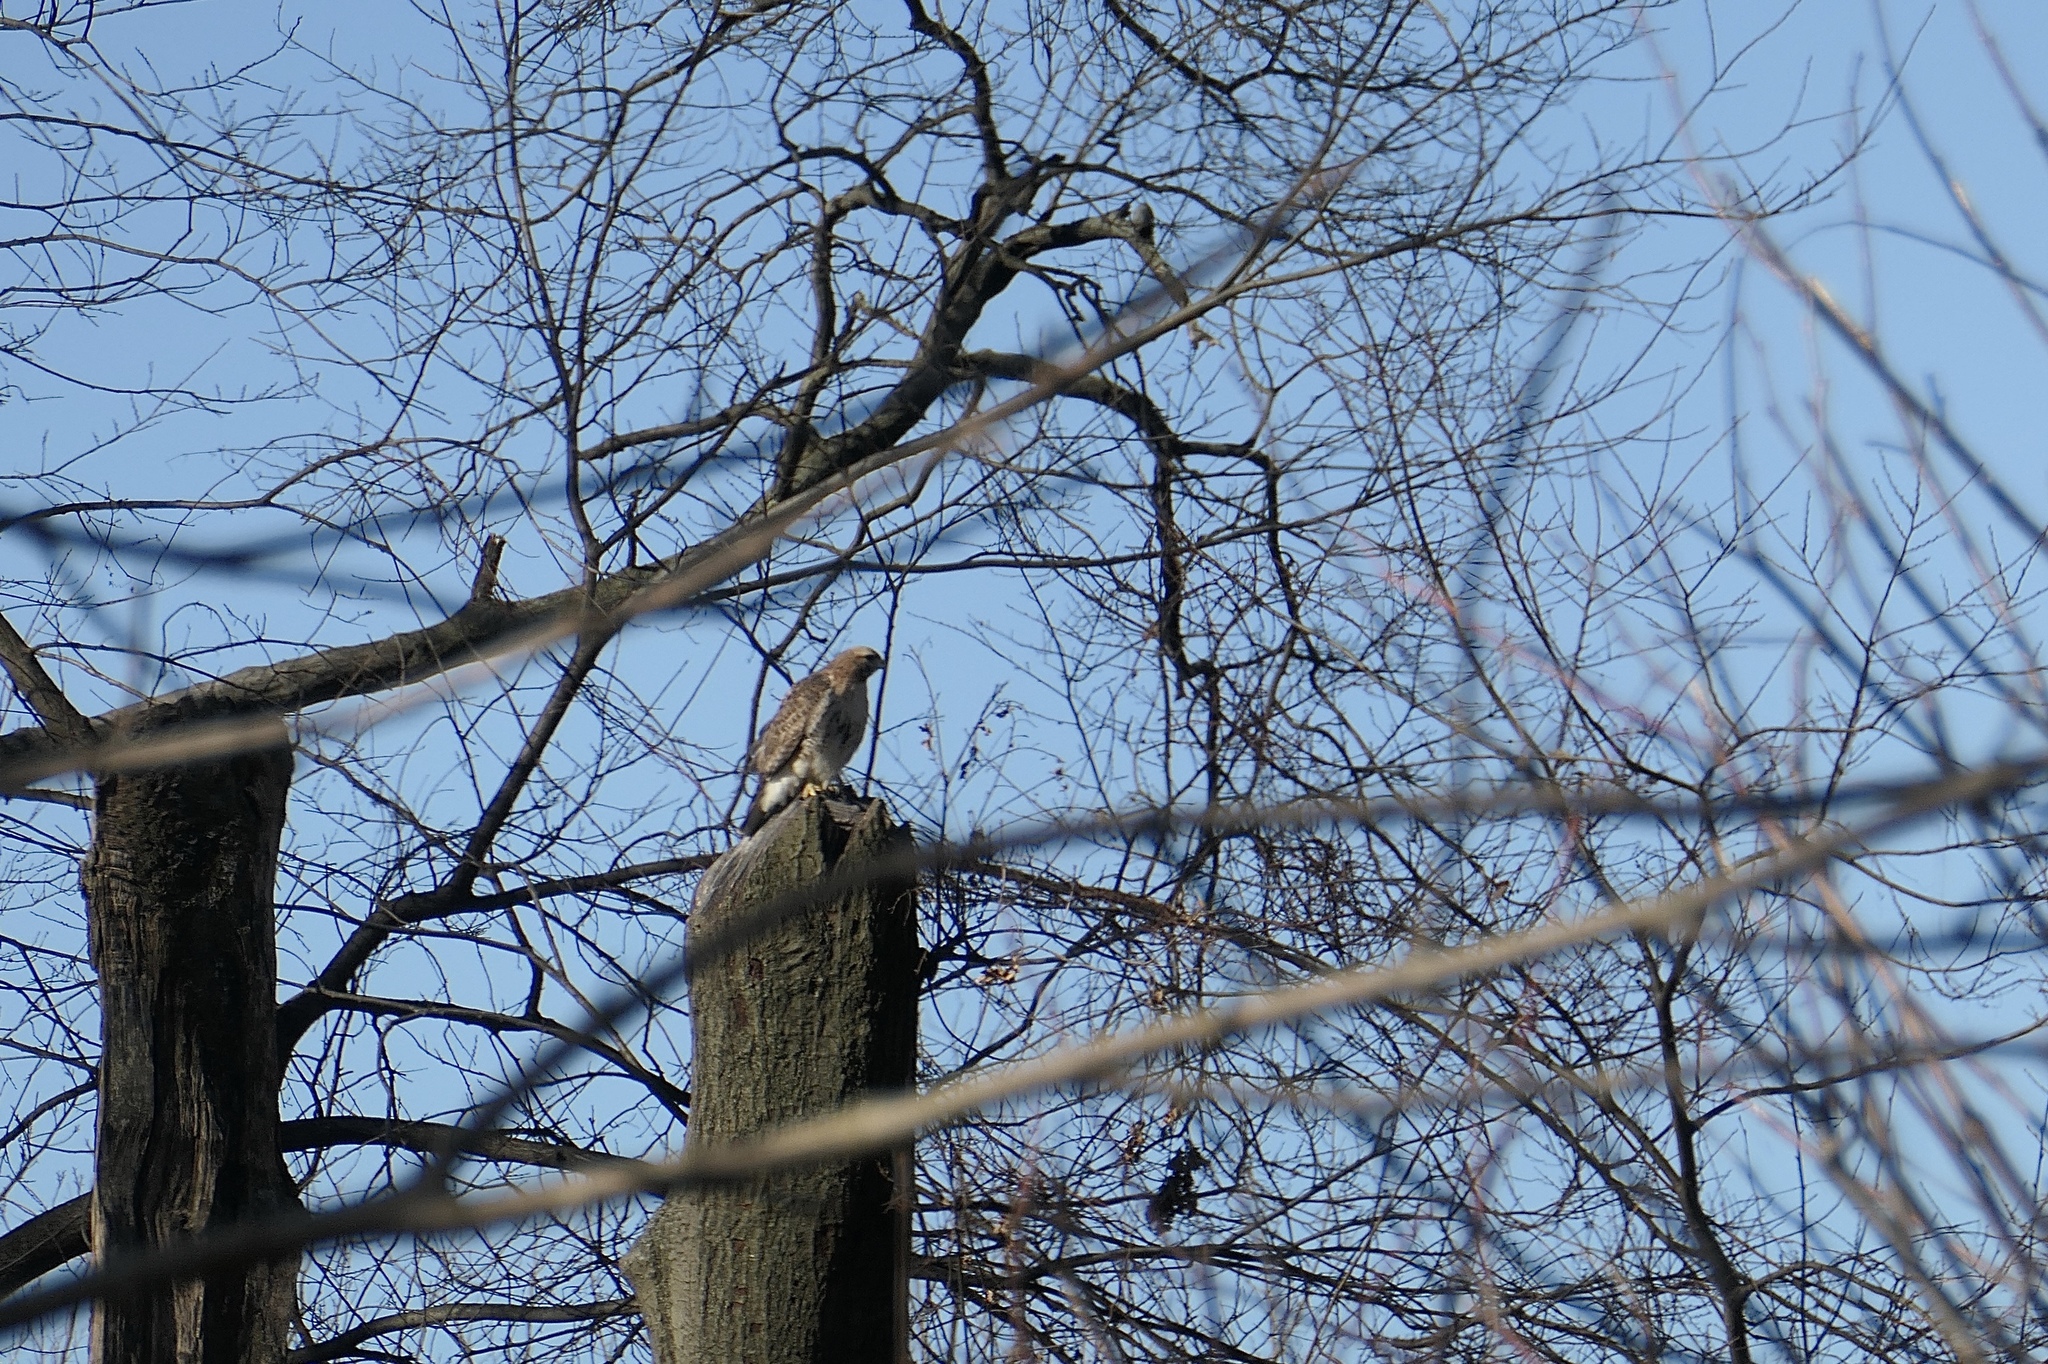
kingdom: Animalia
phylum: Chordata
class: Aves
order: Accipitriformes
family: Accipitridae
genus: Buteo
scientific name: Buteo jamaicensis
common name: Red-tailed hawk
